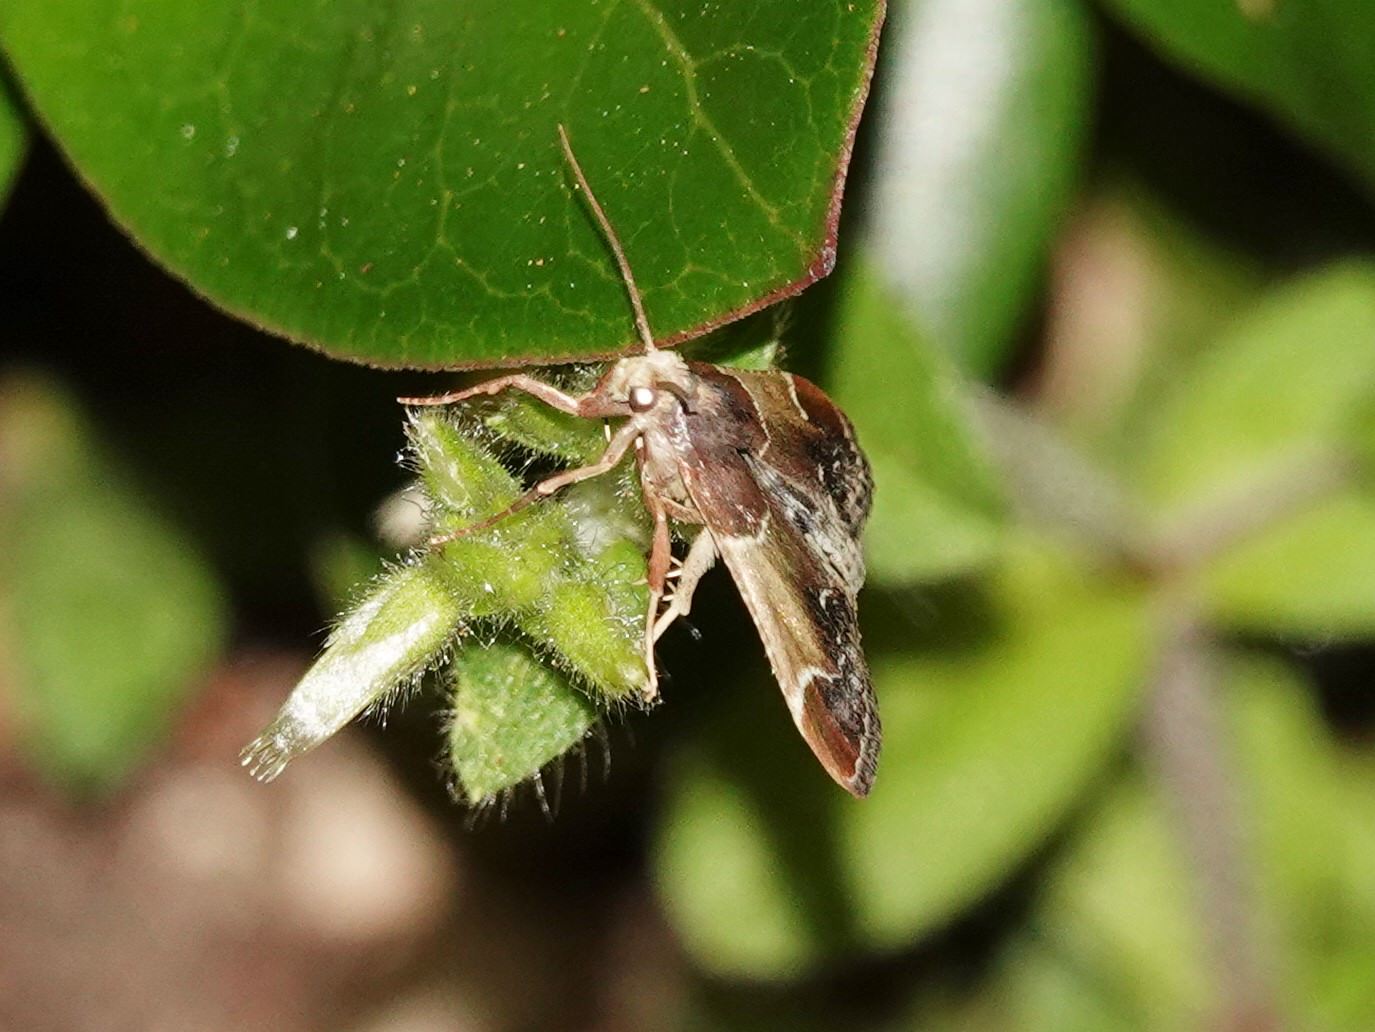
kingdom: Animalia
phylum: Arthropoda
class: Insecta
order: Lepidoptera
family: Pyralidae
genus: Pyralis
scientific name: Pyralis farinalis
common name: Meal moth
